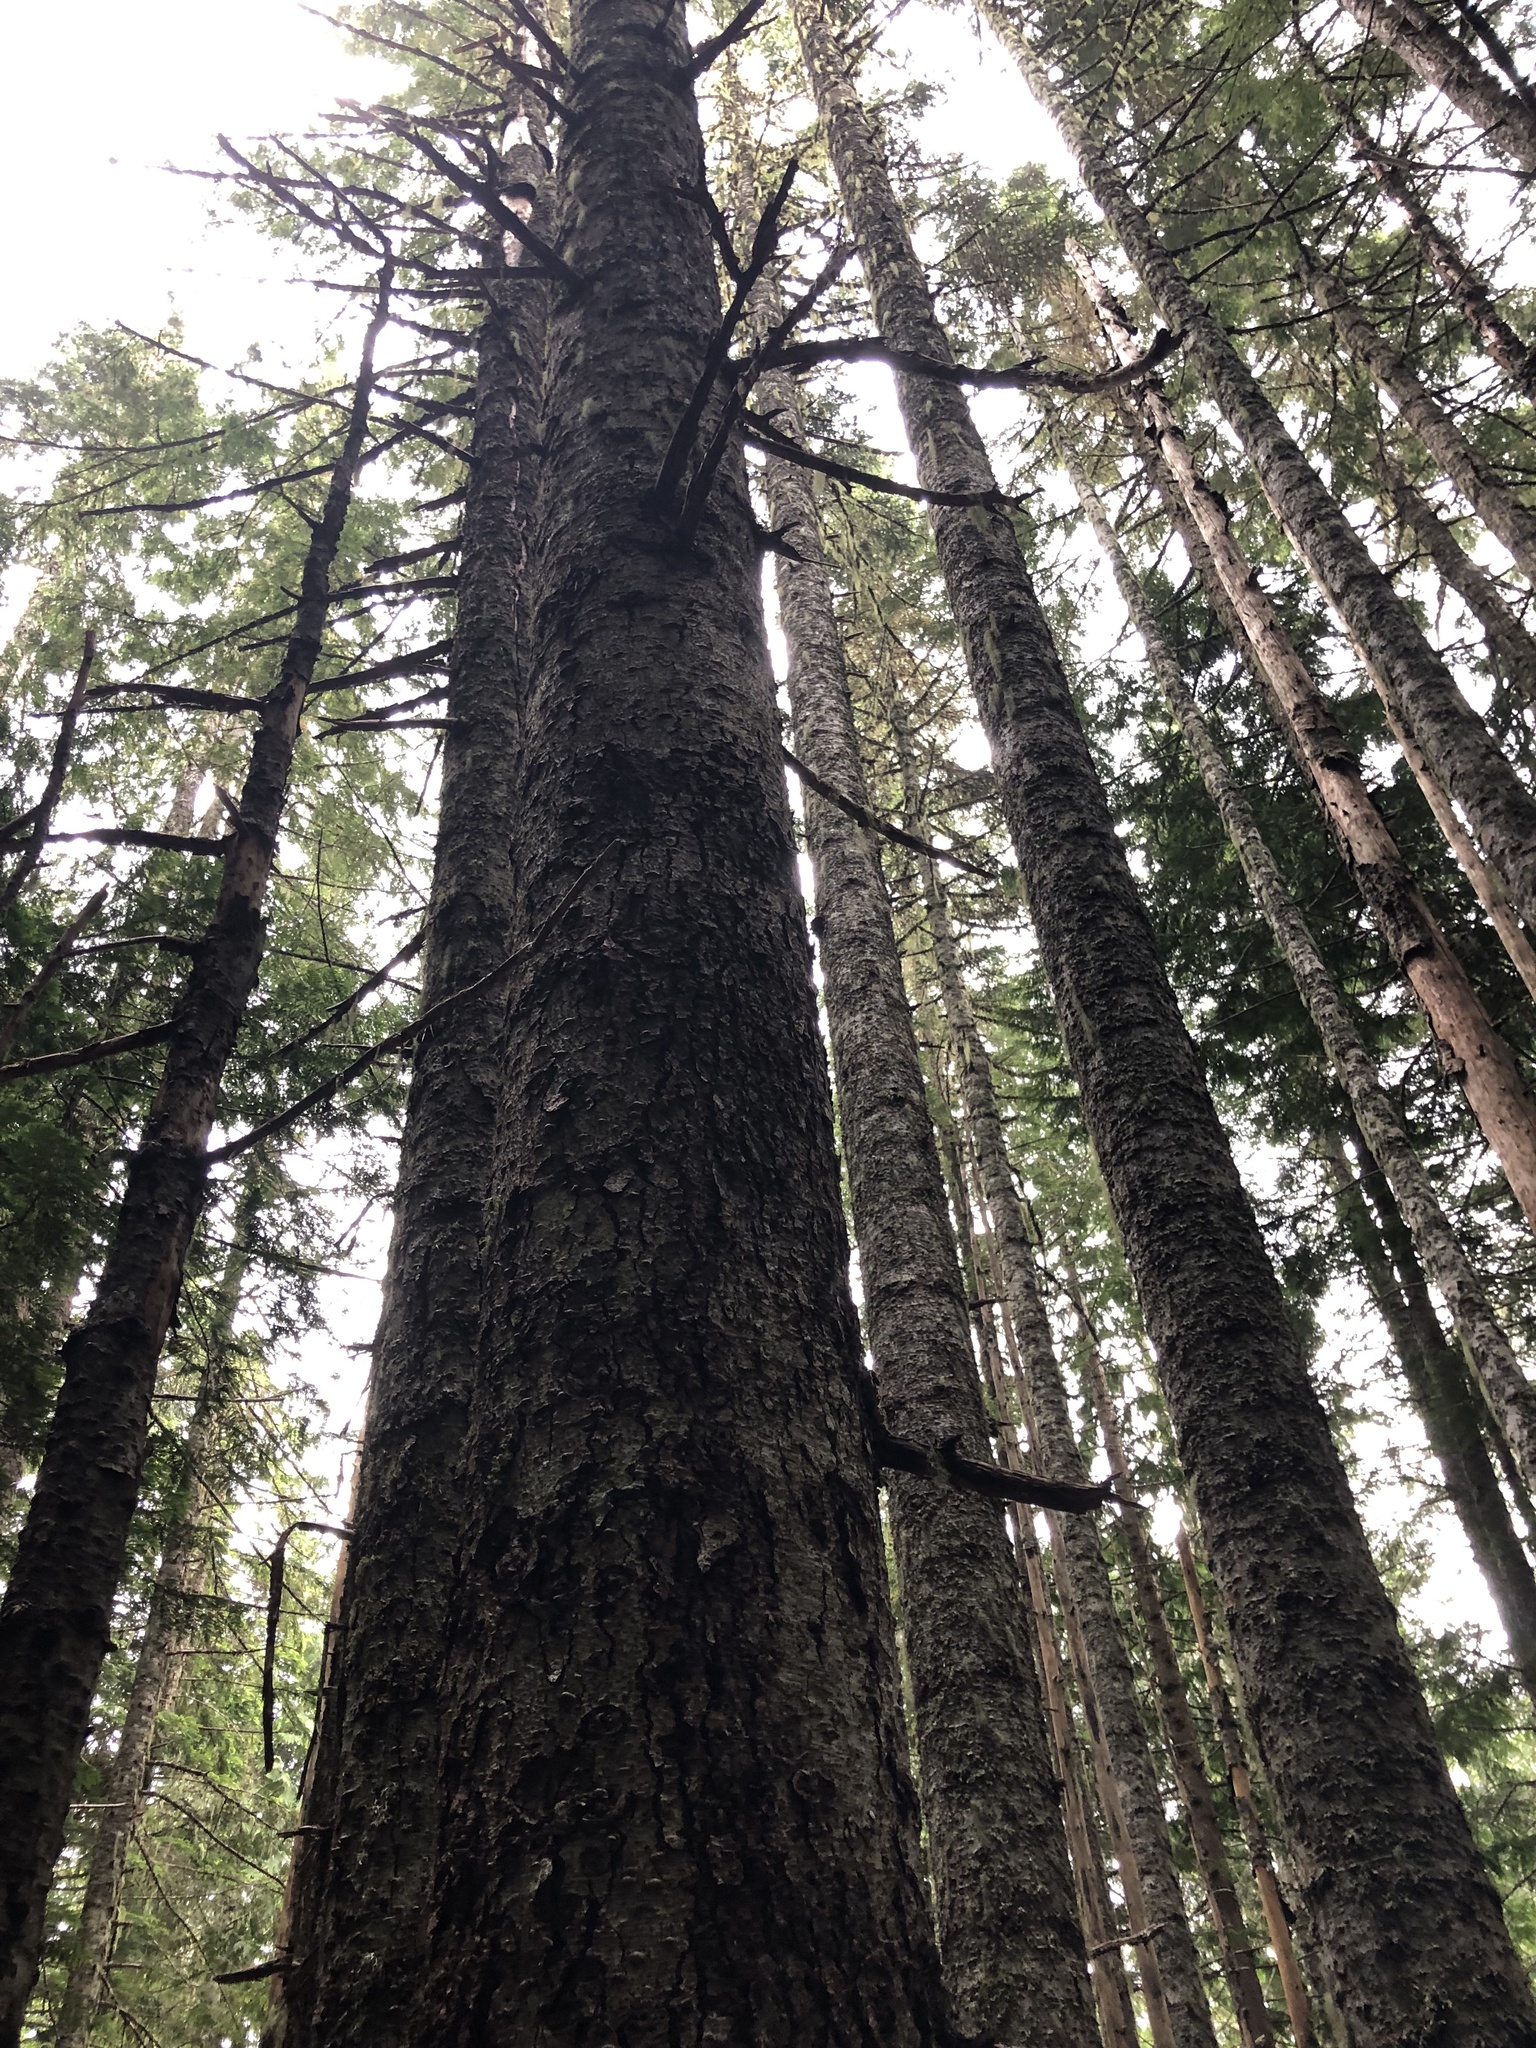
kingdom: Plantae
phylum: Tracheophyta
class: Pinopsida
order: Pinales
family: Pinaceae
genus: Abies
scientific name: Abies amabilis
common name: Pacific silver fir
